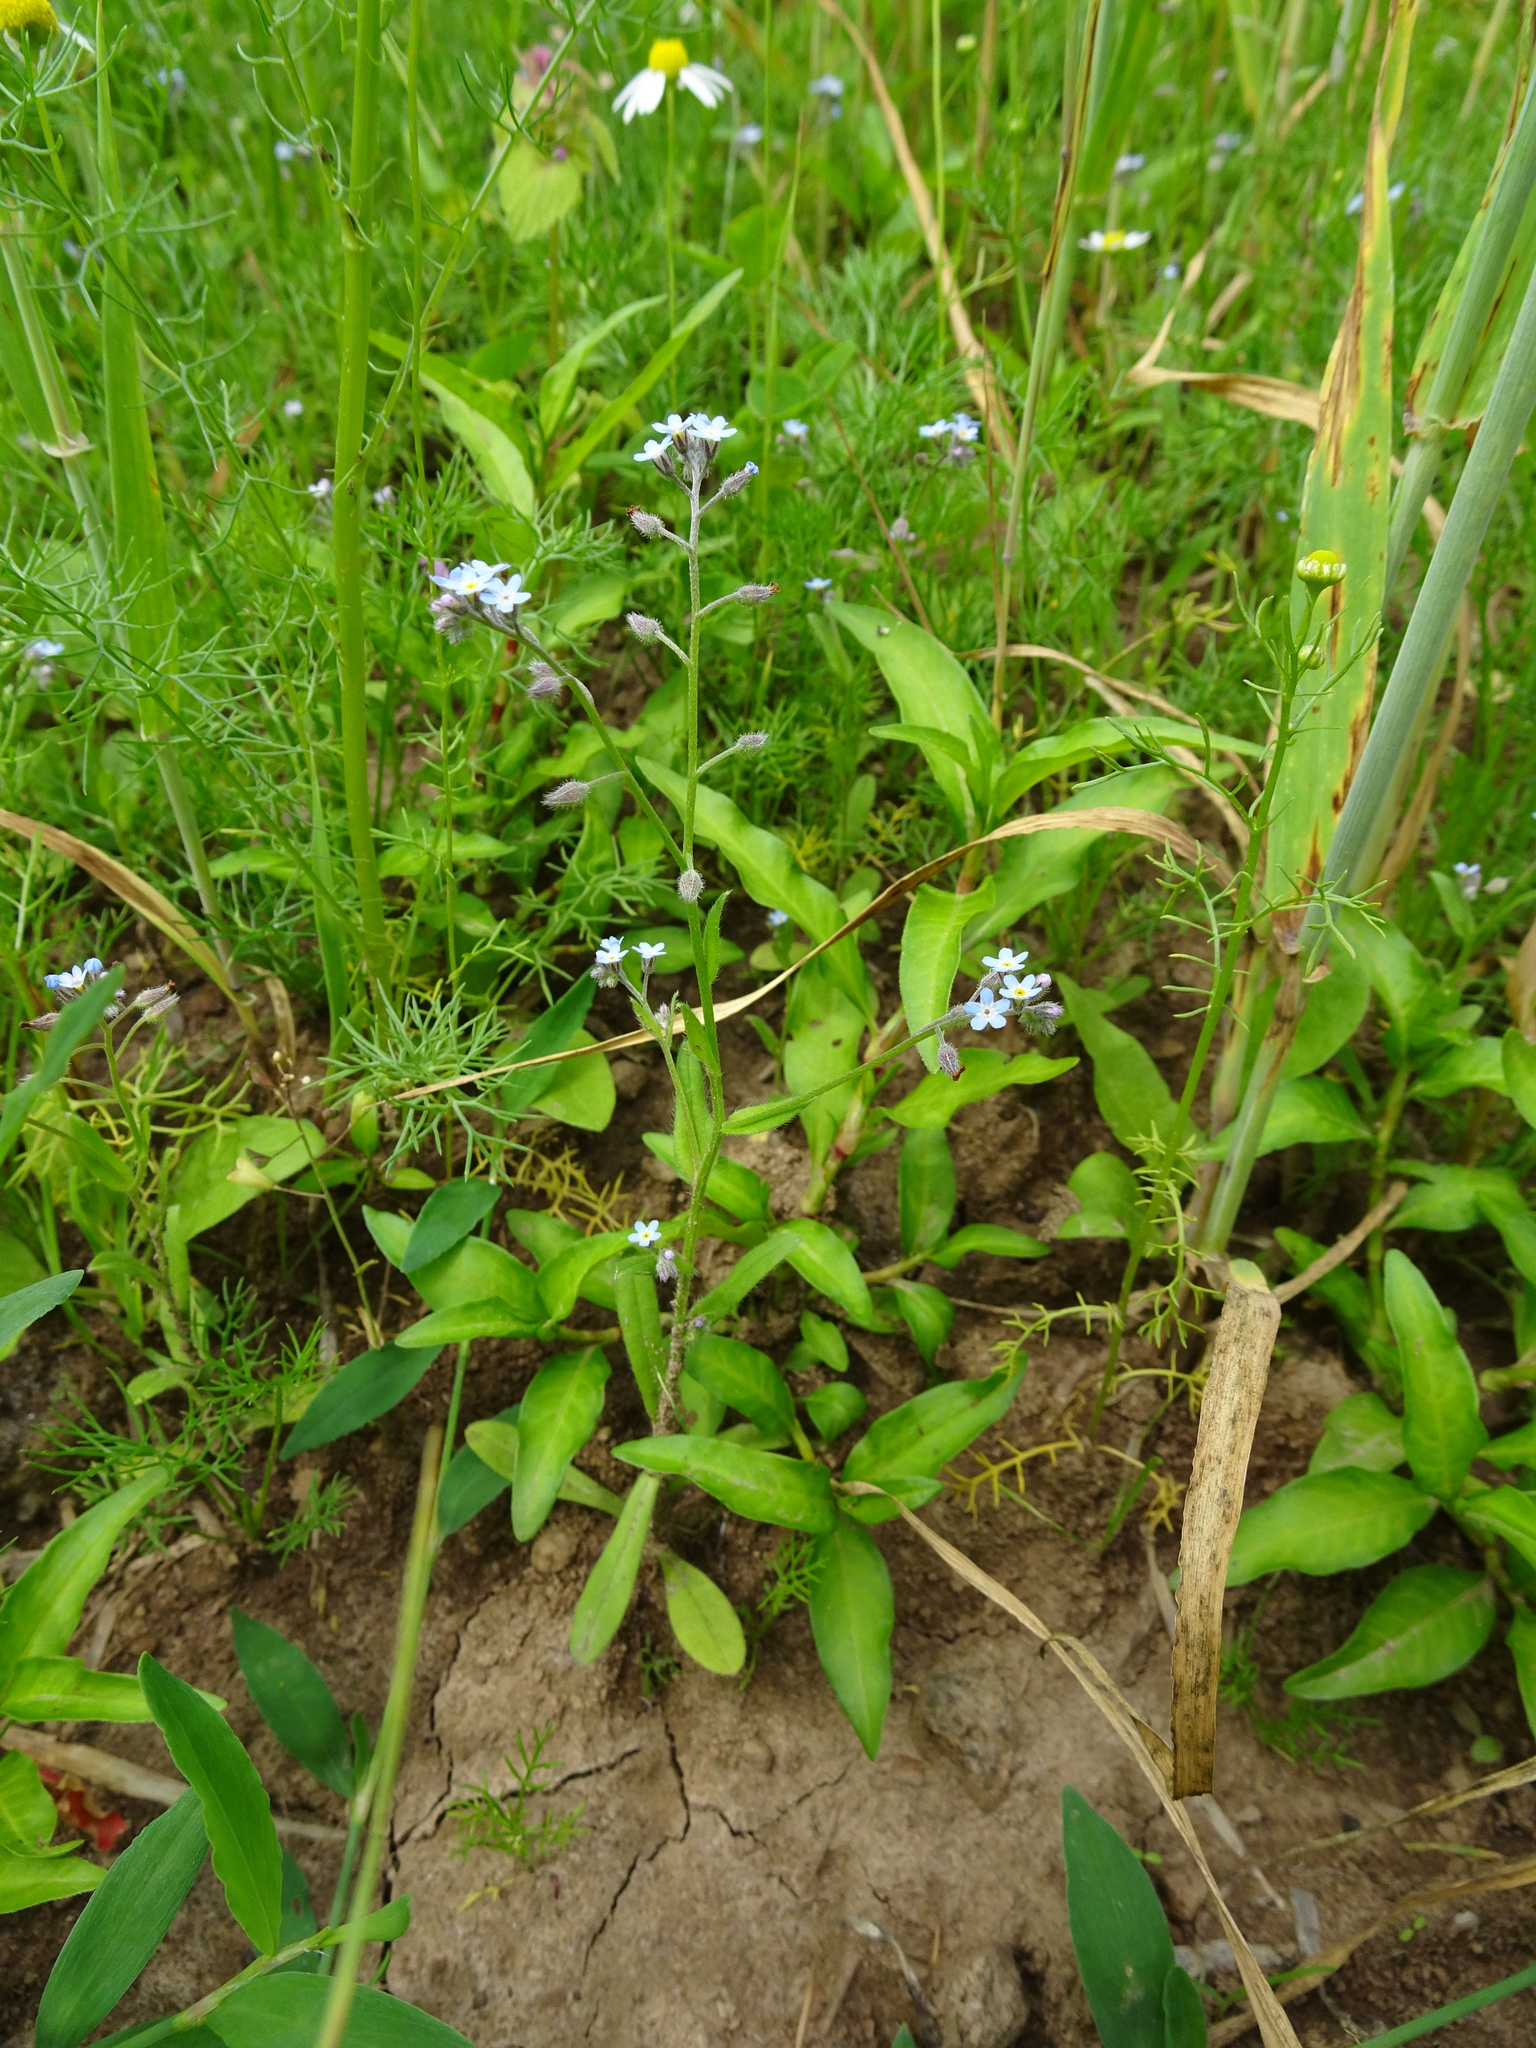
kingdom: Plantae
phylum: Tracheophyta
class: Magnoliopsida
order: Boraginales
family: Boraginaceae
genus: Myosotis
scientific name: Myosotis arvensis
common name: Field forget-me-not
